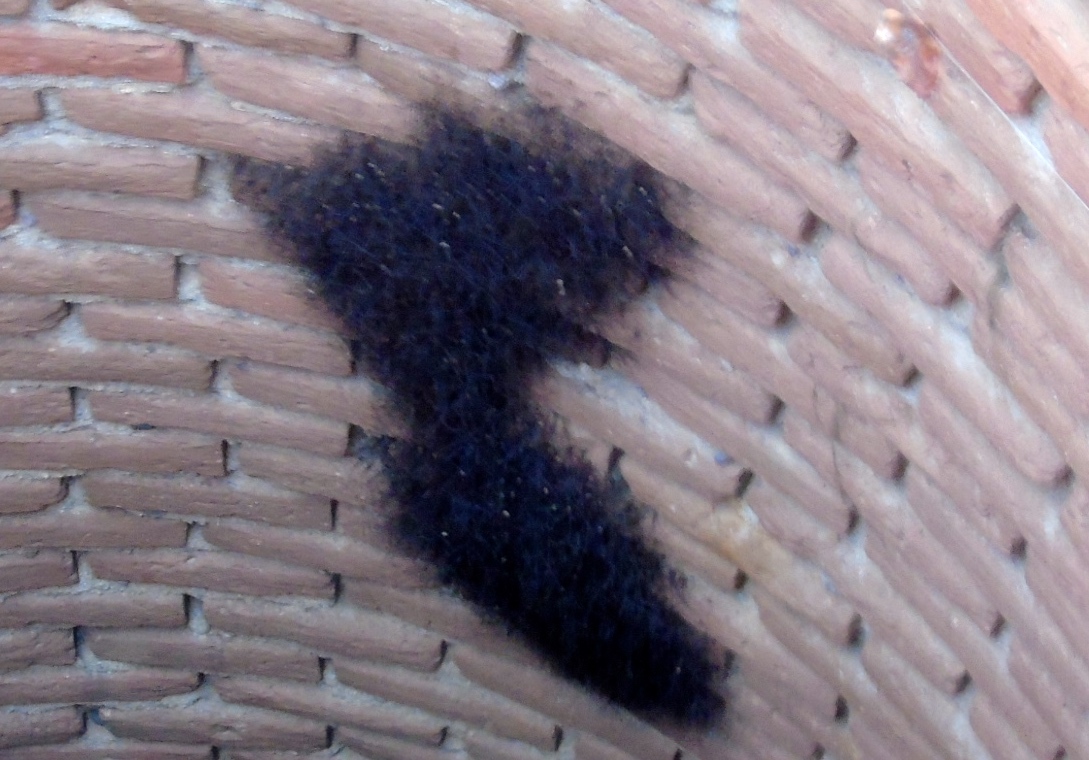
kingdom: Animalia
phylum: Arthropoda
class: Arachnida
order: Opiliones
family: Sclerosomatidae
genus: Leiobunum
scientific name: Leiobunum
